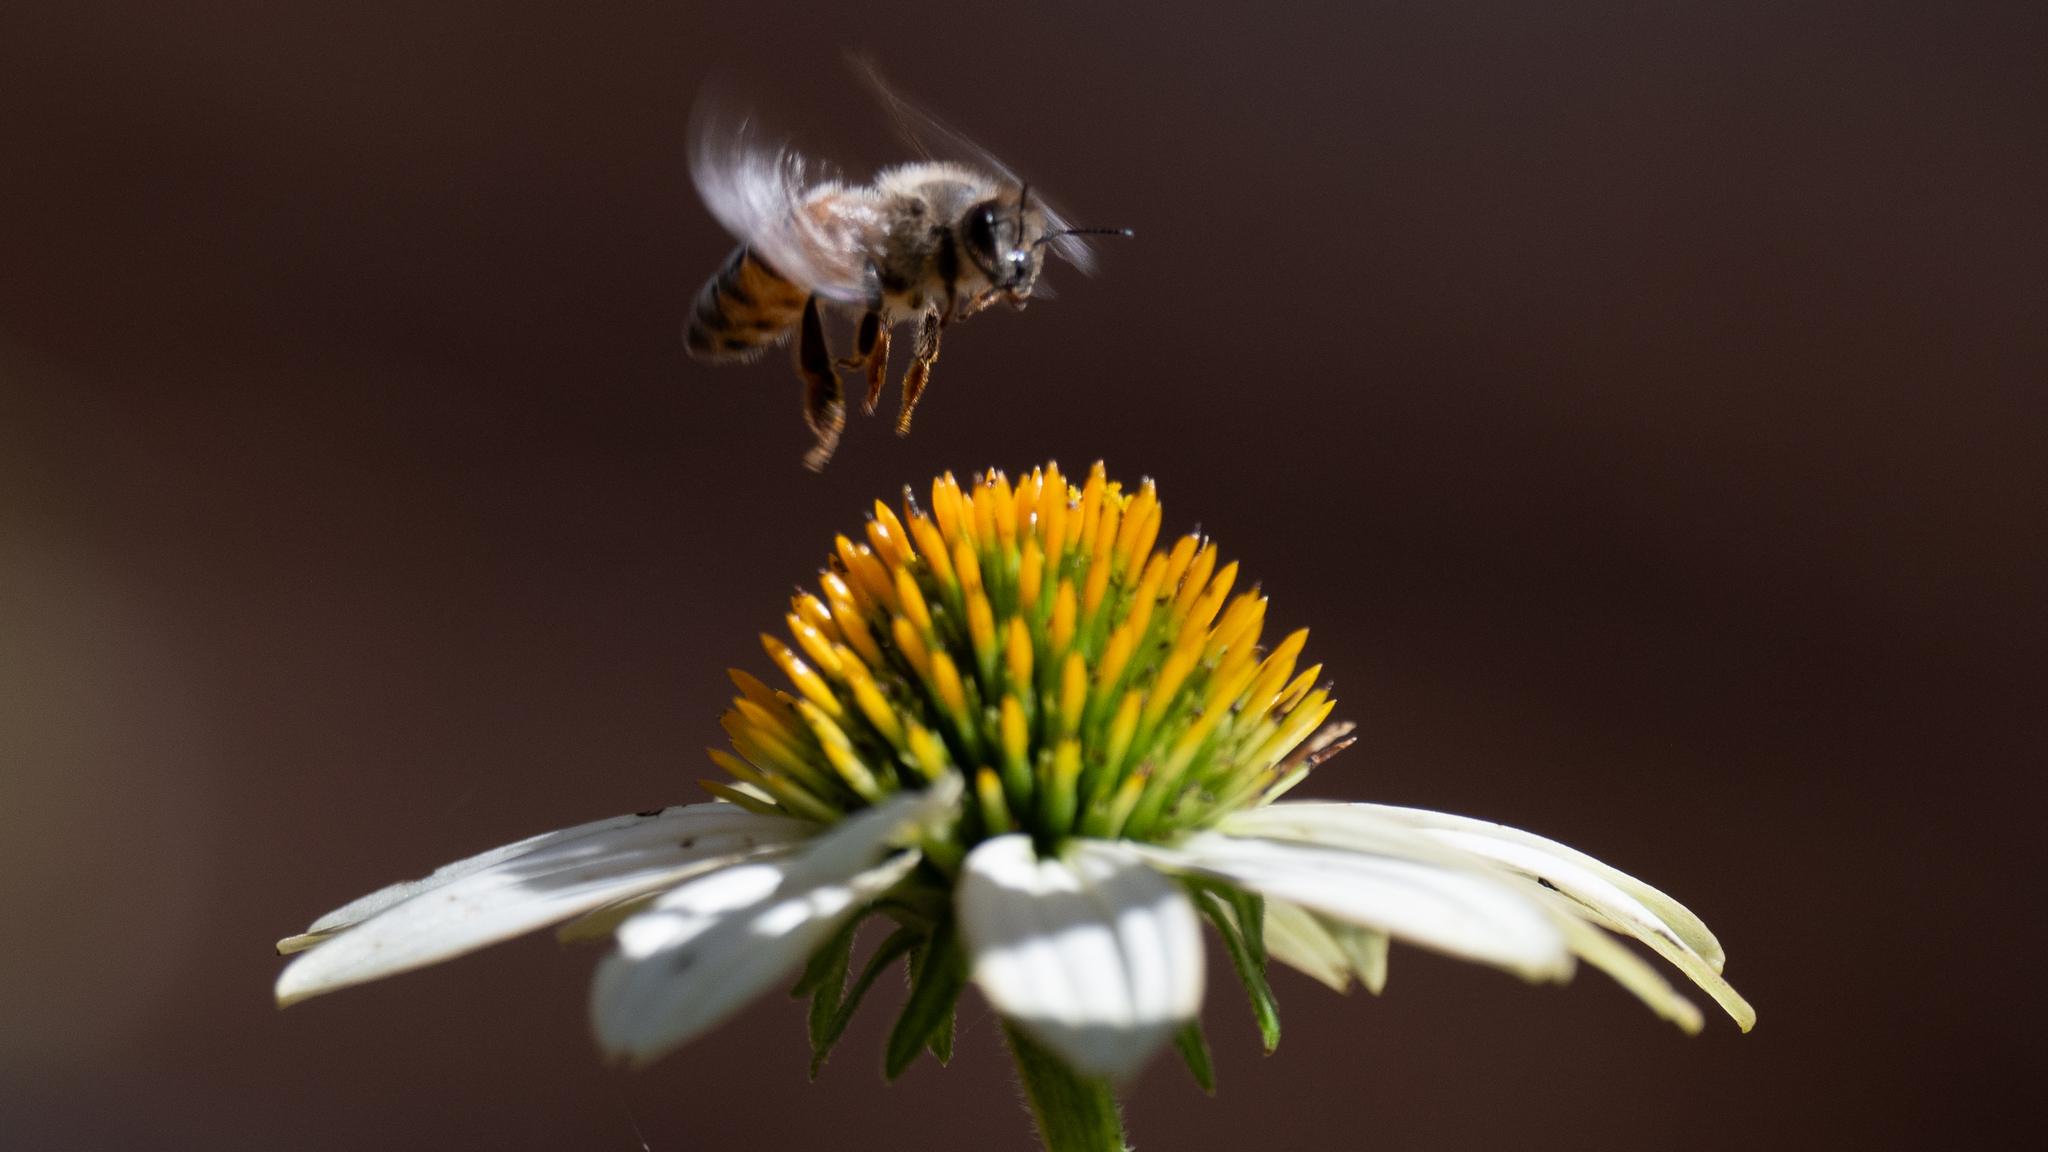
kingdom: Animalia
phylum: Arthropoda
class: Insecta
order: Hymenoptera
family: Apidae
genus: Apis
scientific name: Apis mellifera
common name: Honey bee
